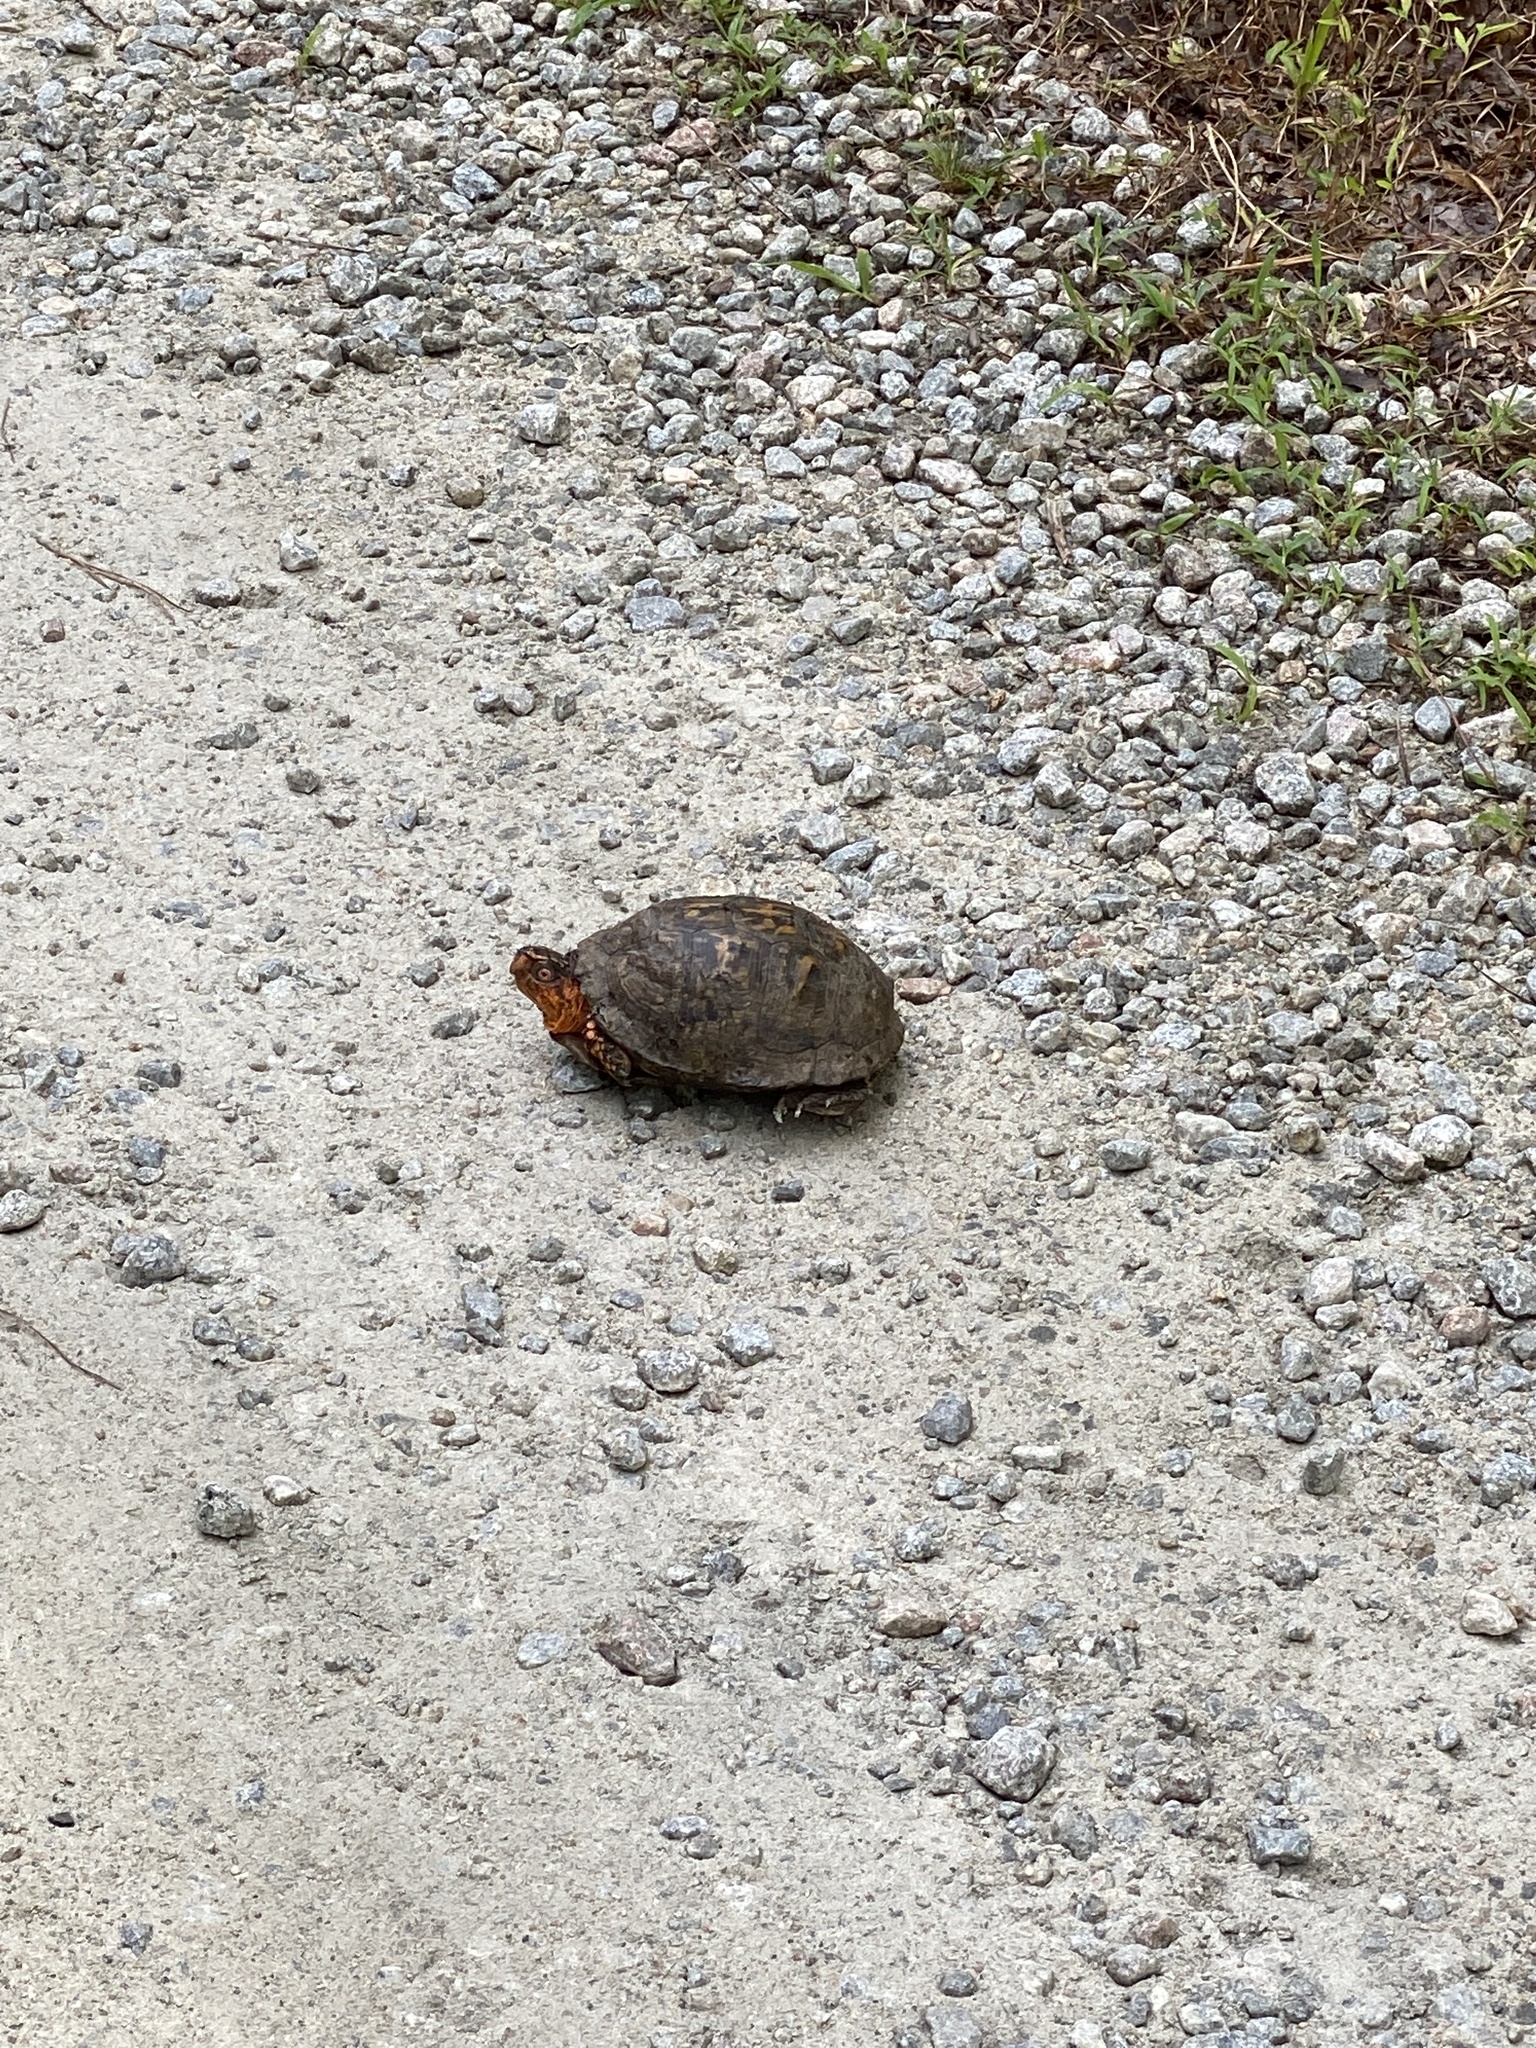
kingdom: Animalia
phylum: Chordata
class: Testudines
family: Emydidae
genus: Terrapene
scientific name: Terrapene carolina
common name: Common box turtle
